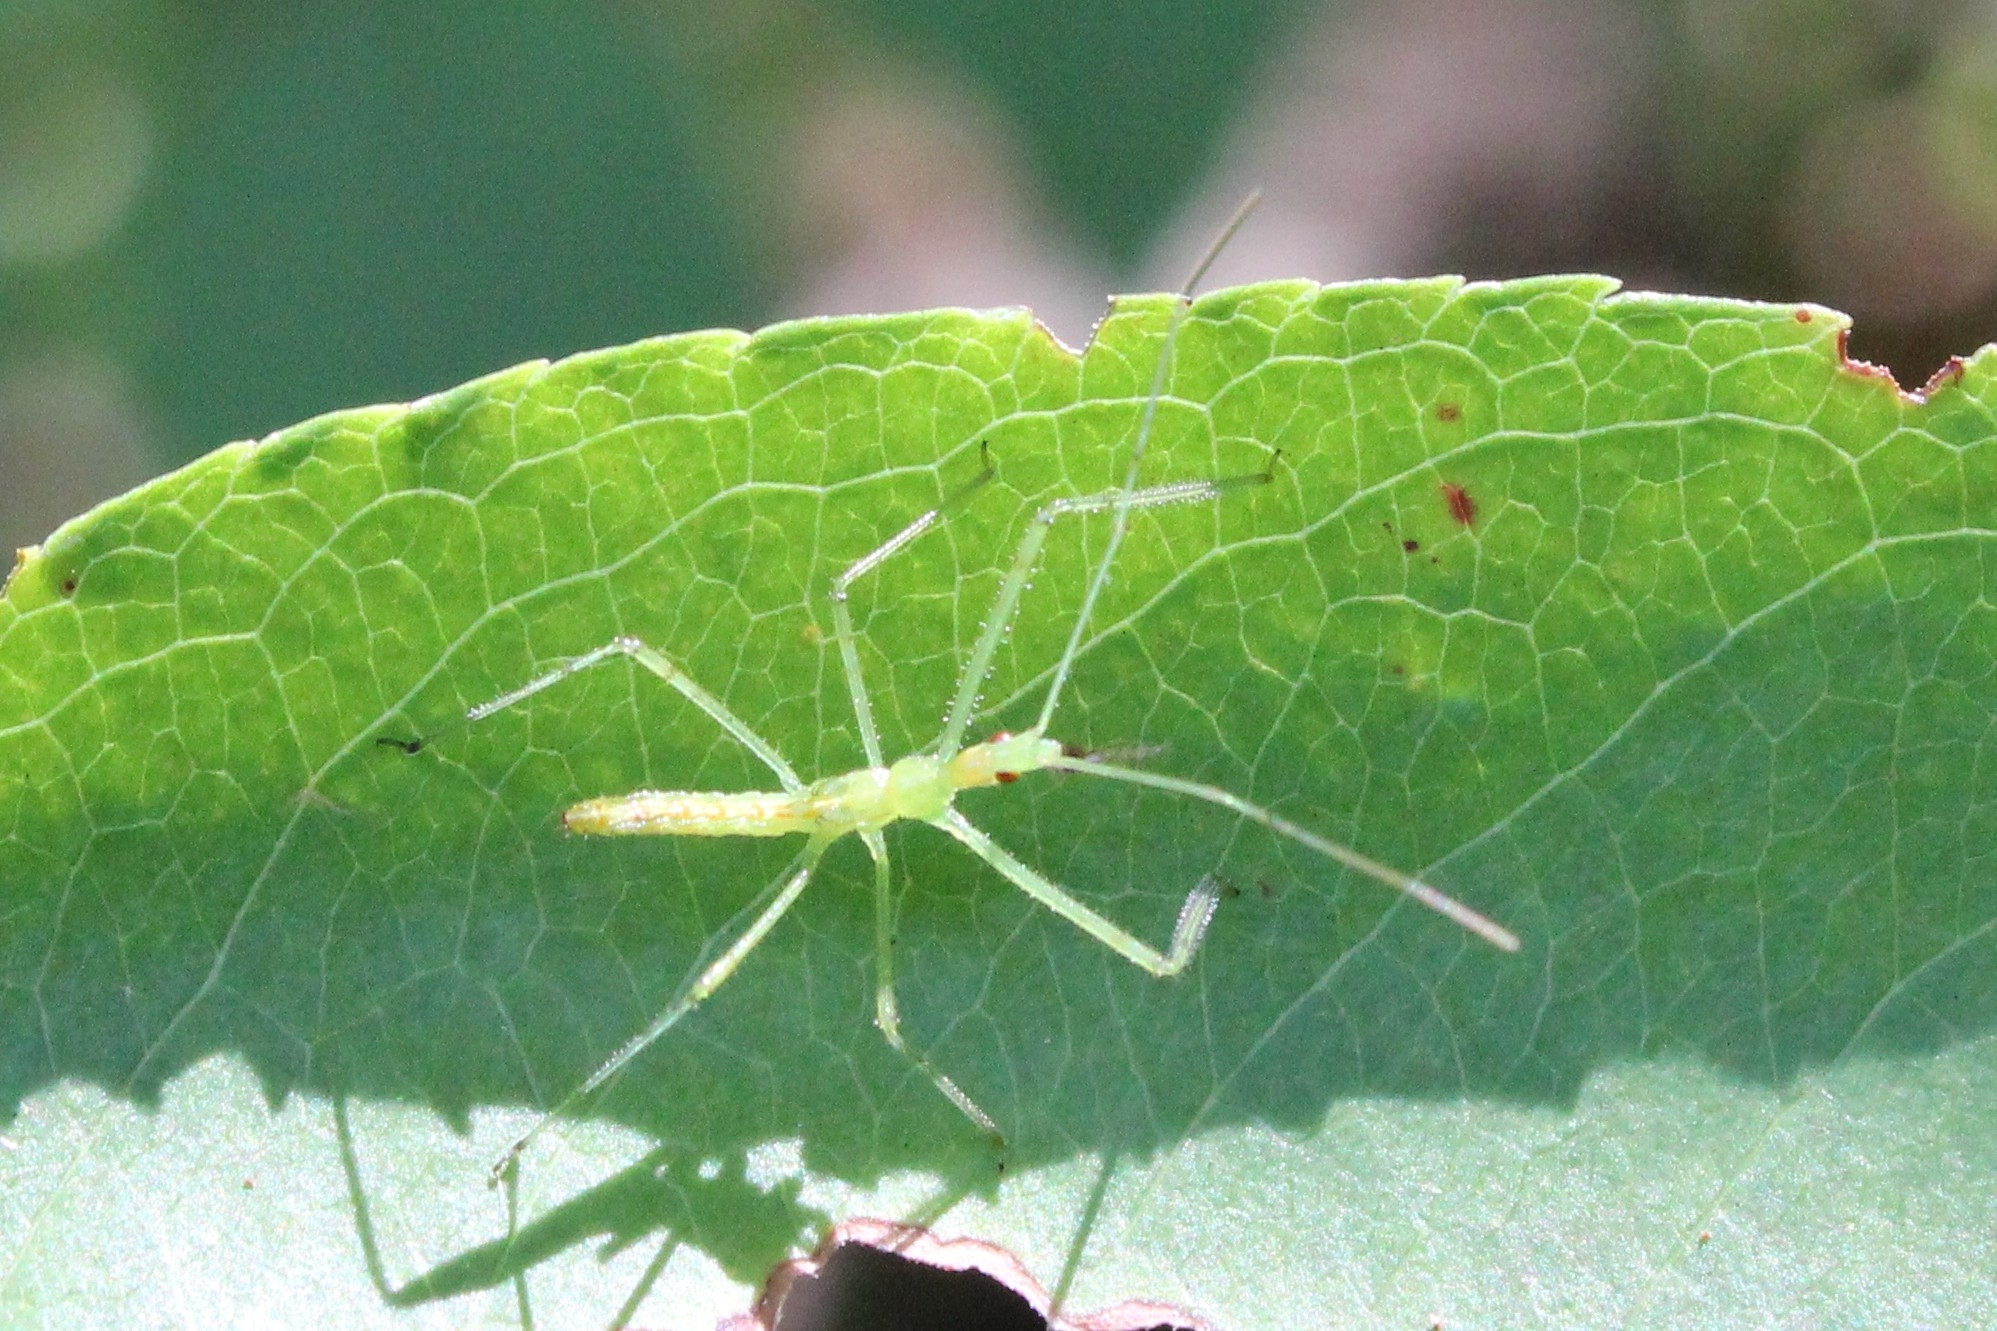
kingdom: Animalia
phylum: Arthropoda
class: Insecta
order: Hemiptera
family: Reduviidae
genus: Zelus
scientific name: Zelus luridus
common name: Pale green assassin bug
